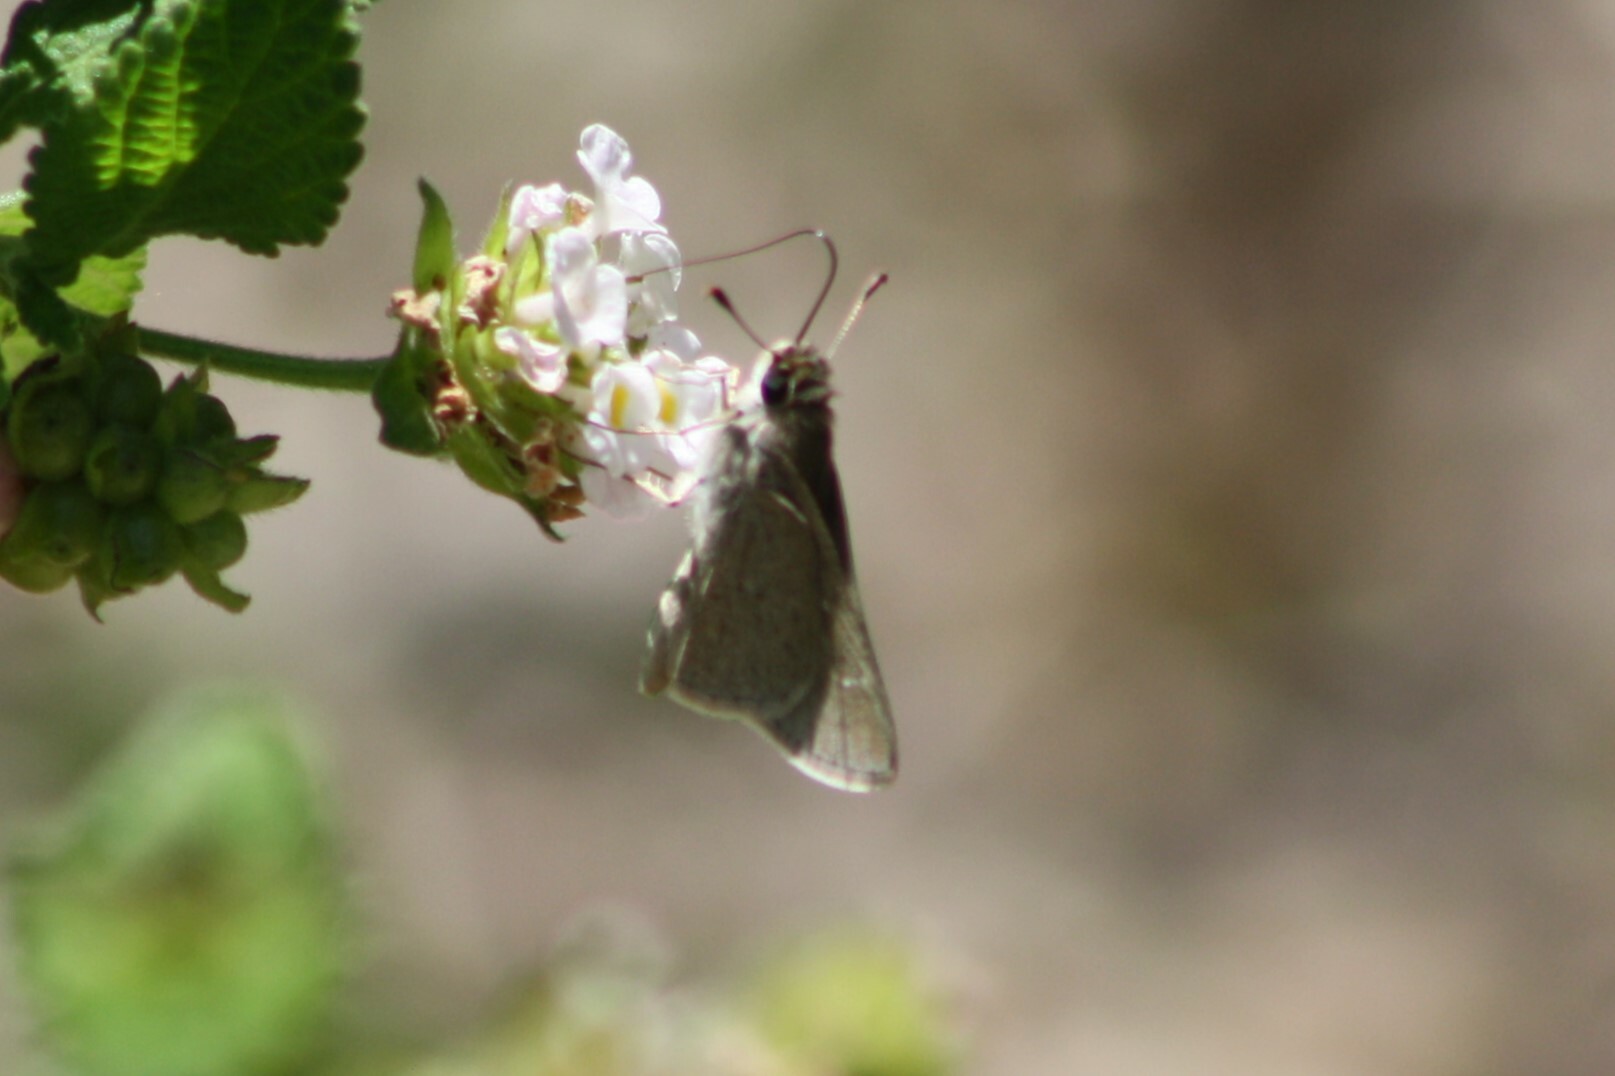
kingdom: Animalia
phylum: Arthropoda
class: Insecta
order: Lepidoptera
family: Hesperiidae
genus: Lerodea
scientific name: Lerodea eufala
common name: Eufala skipper
